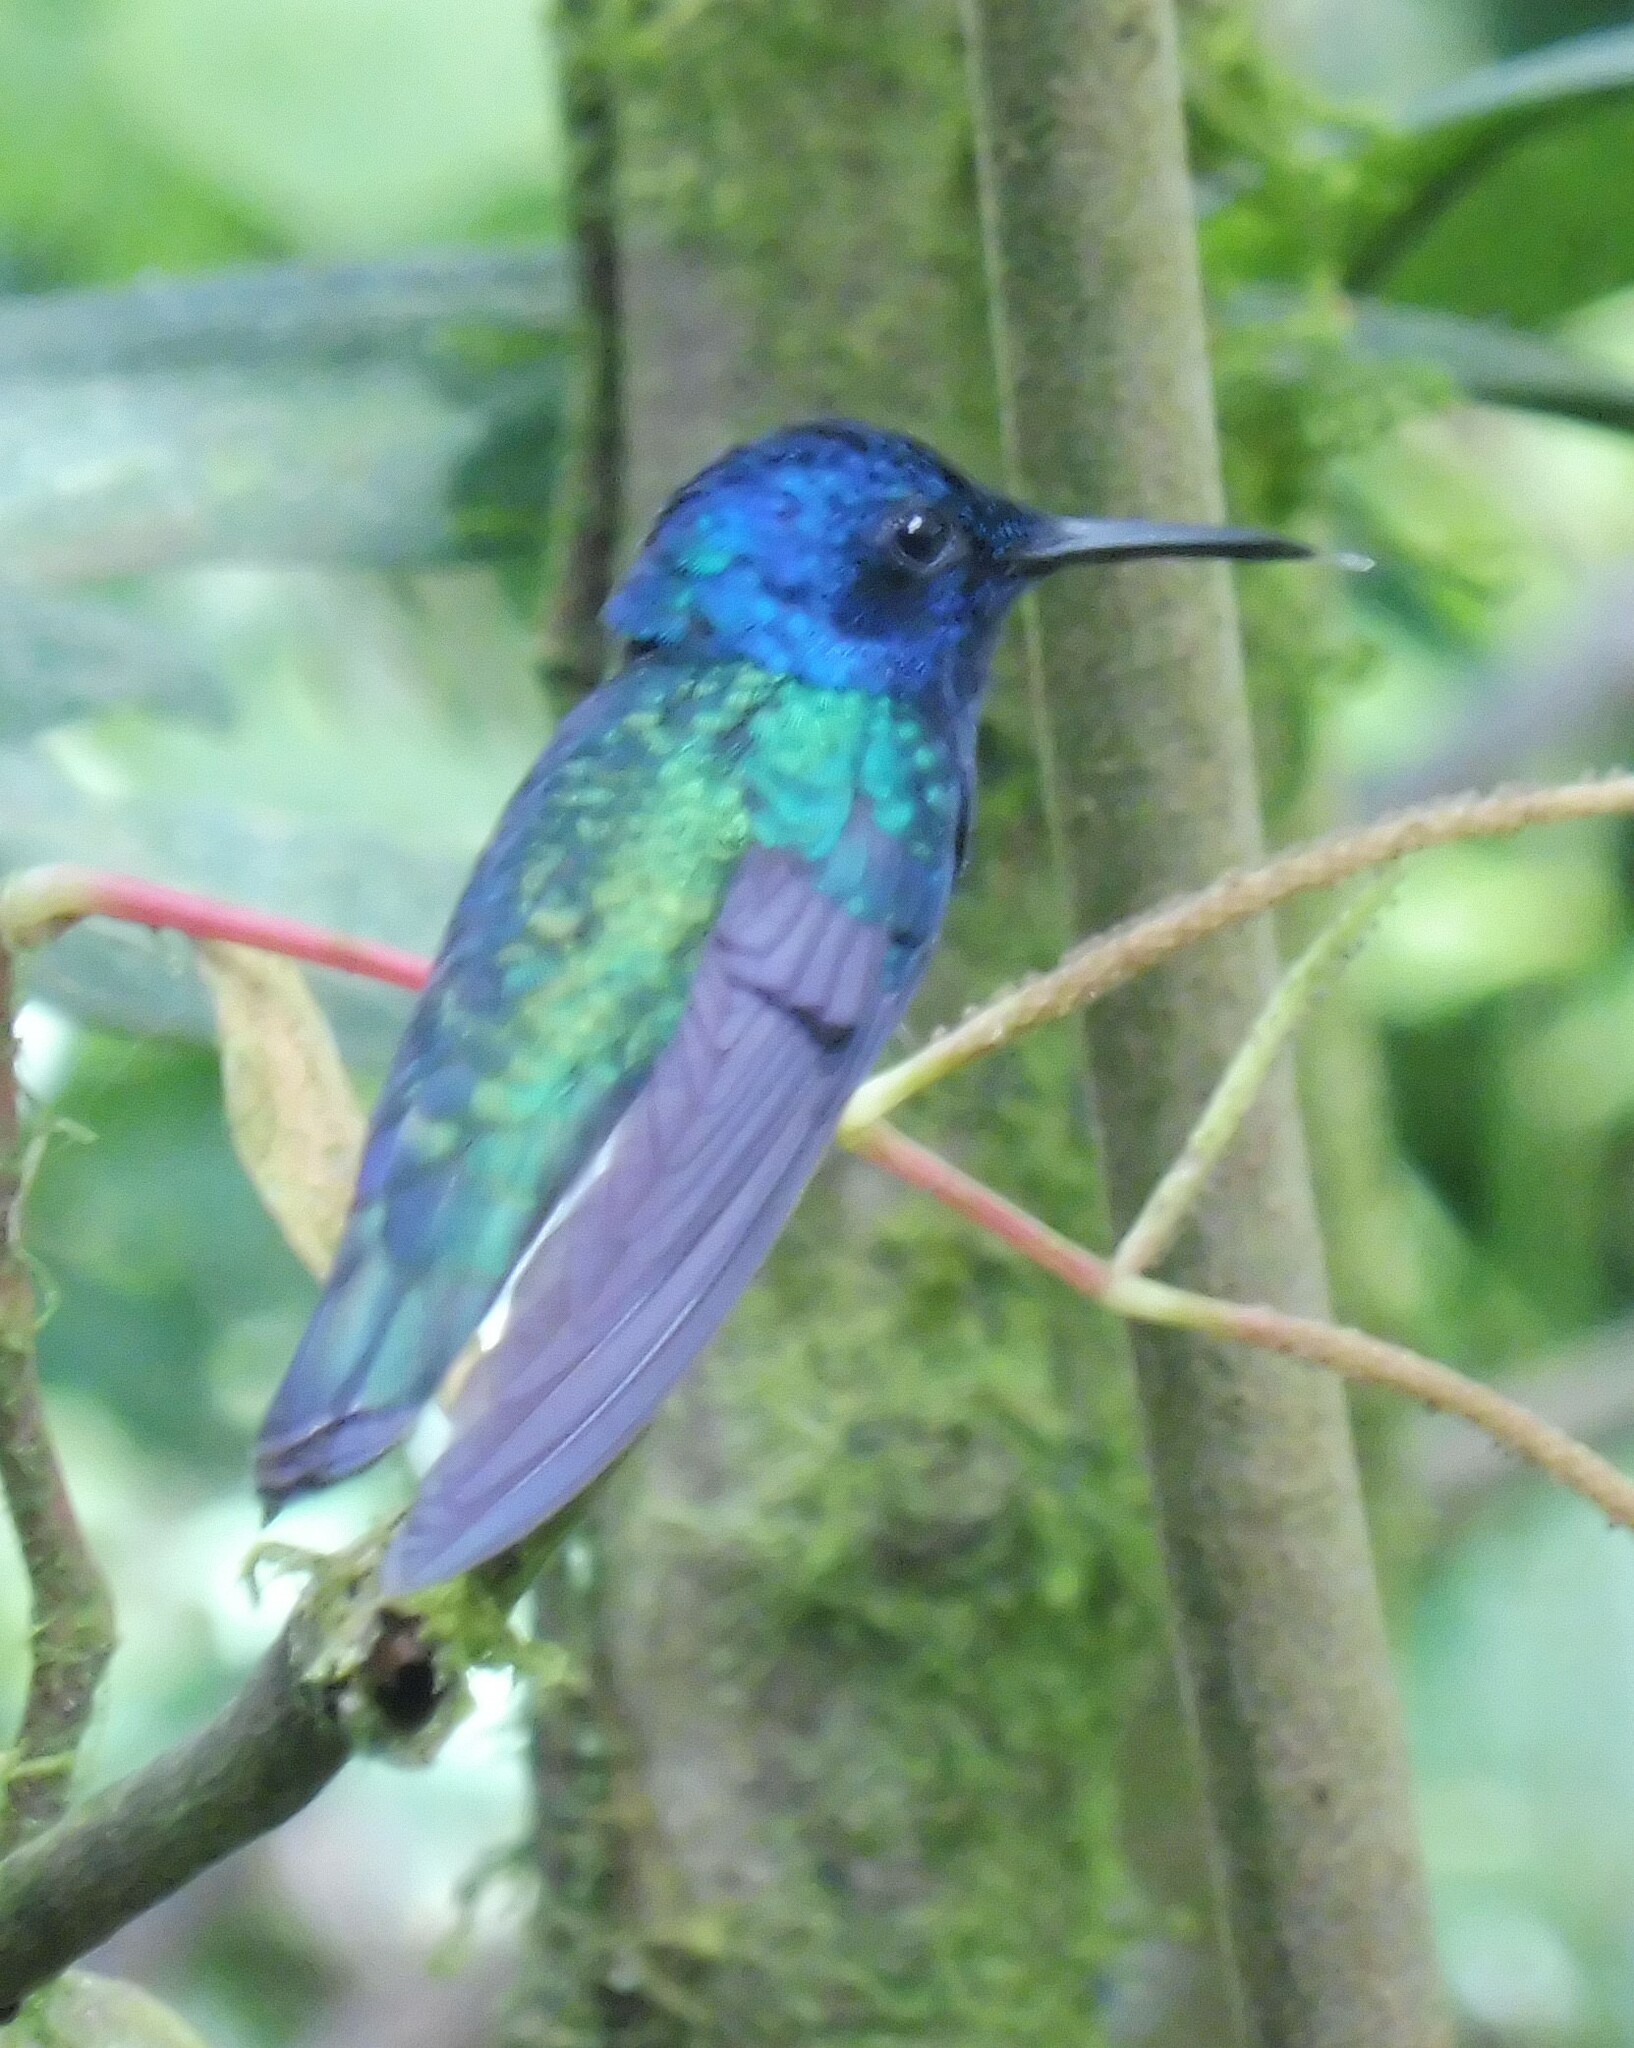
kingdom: Animalia
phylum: Chordata
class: Aves
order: Apodiformes
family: Trochilidae
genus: Florisuga
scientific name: Florisuga mellivora
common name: White-necked jacobin
